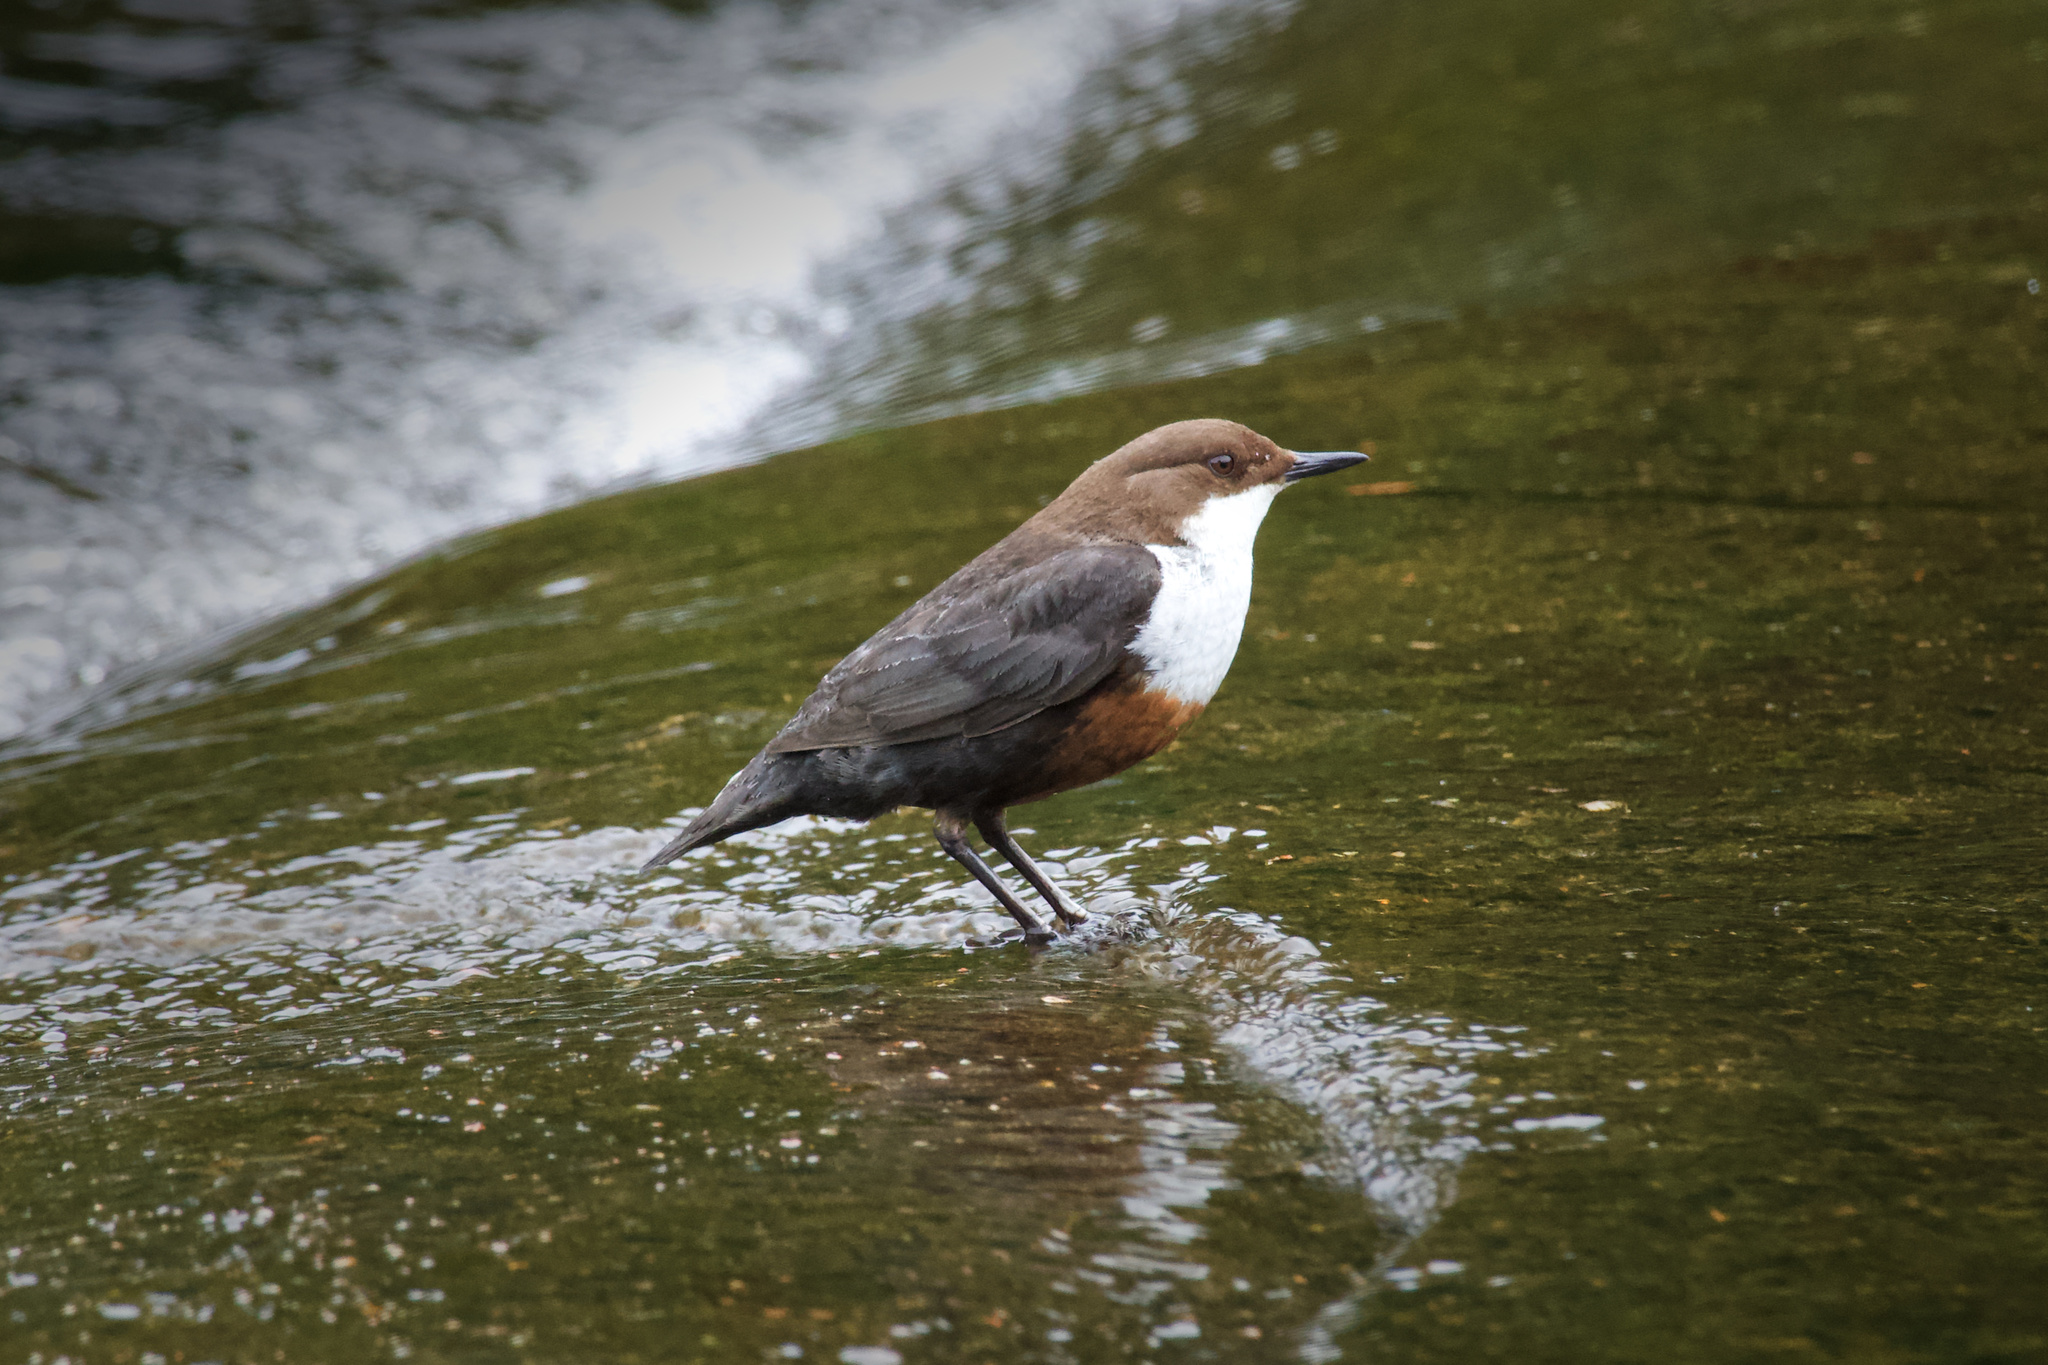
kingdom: Animalia
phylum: Chordata
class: Aves
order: Passeriformes
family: Cinclidae
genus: Cinclus
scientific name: Cinclus cinclus
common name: White-throated dipper
